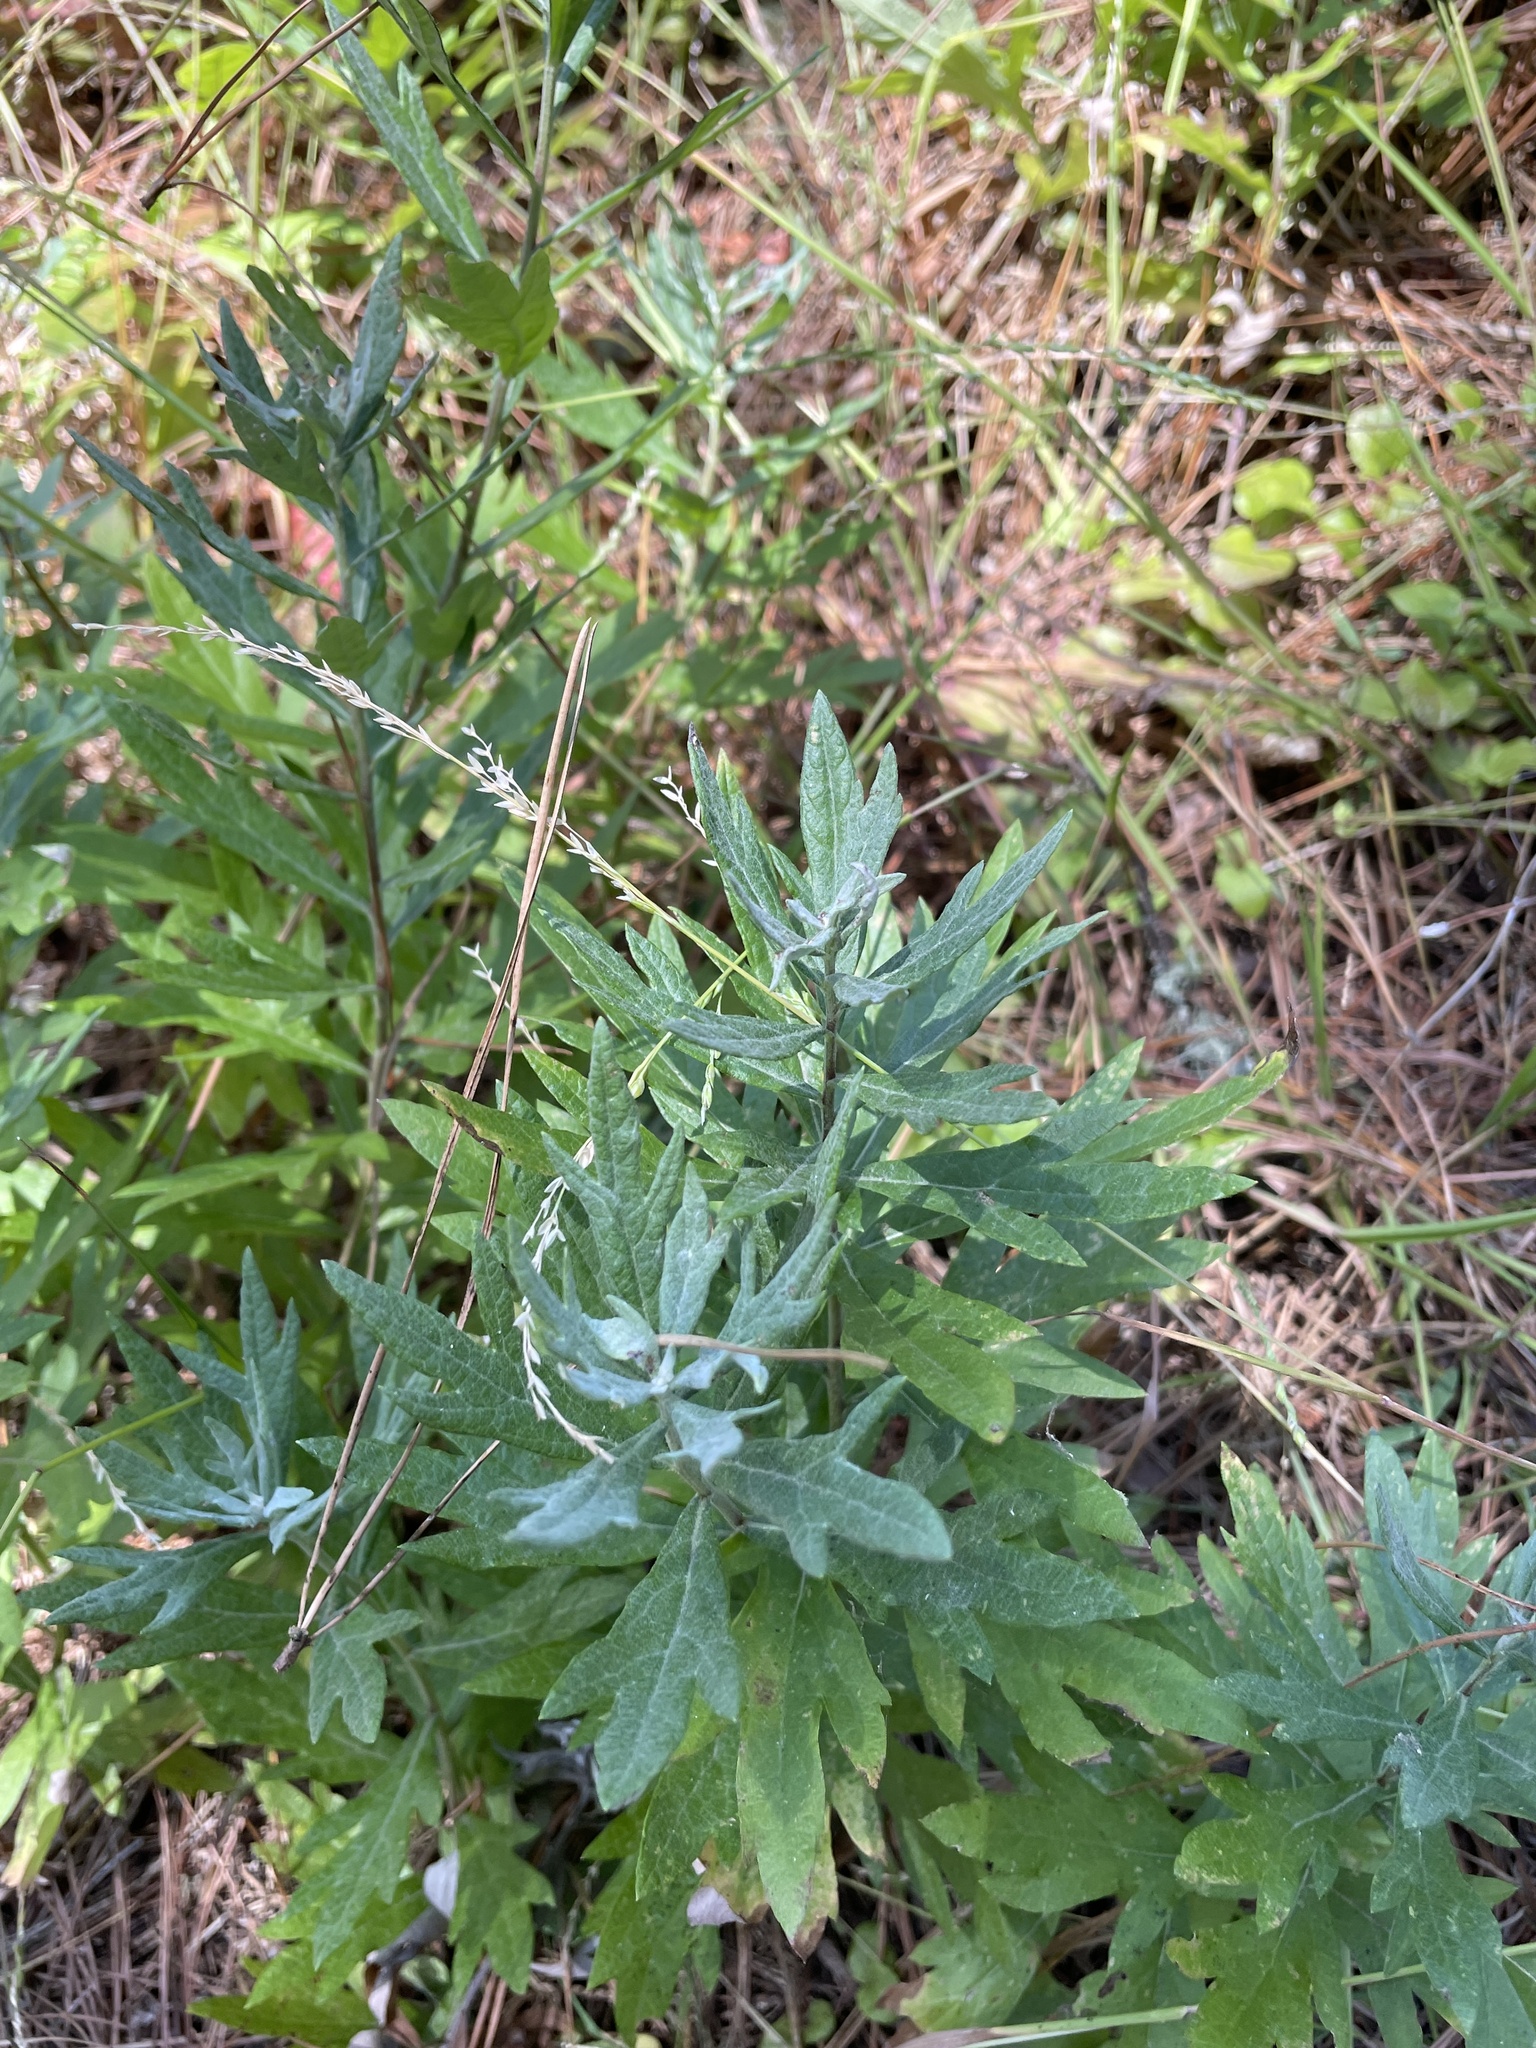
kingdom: Plantae
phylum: Tracheophyta
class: Magnoliopsida
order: Asterales
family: Asteraceae
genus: Artemisia
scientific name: Artemisia douglasiana
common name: Northwest mugwort
